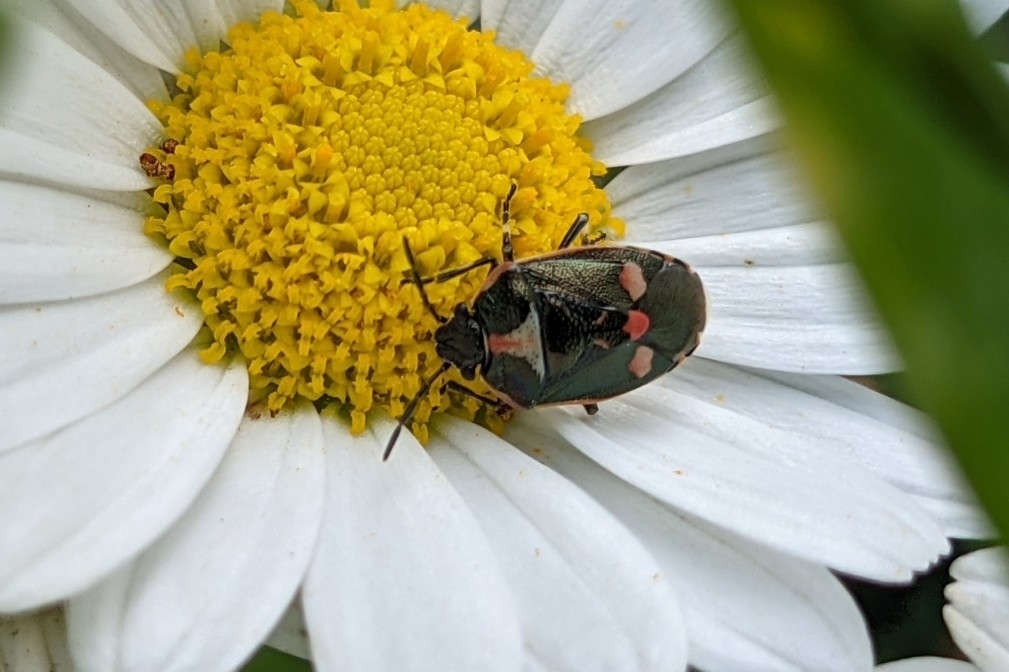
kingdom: Animalia
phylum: Arthropoda
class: Insecta
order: Hemiptera
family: Pentatomidae
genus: Eurydema
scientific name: Eurydema oleracea
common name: Cabbage bug
